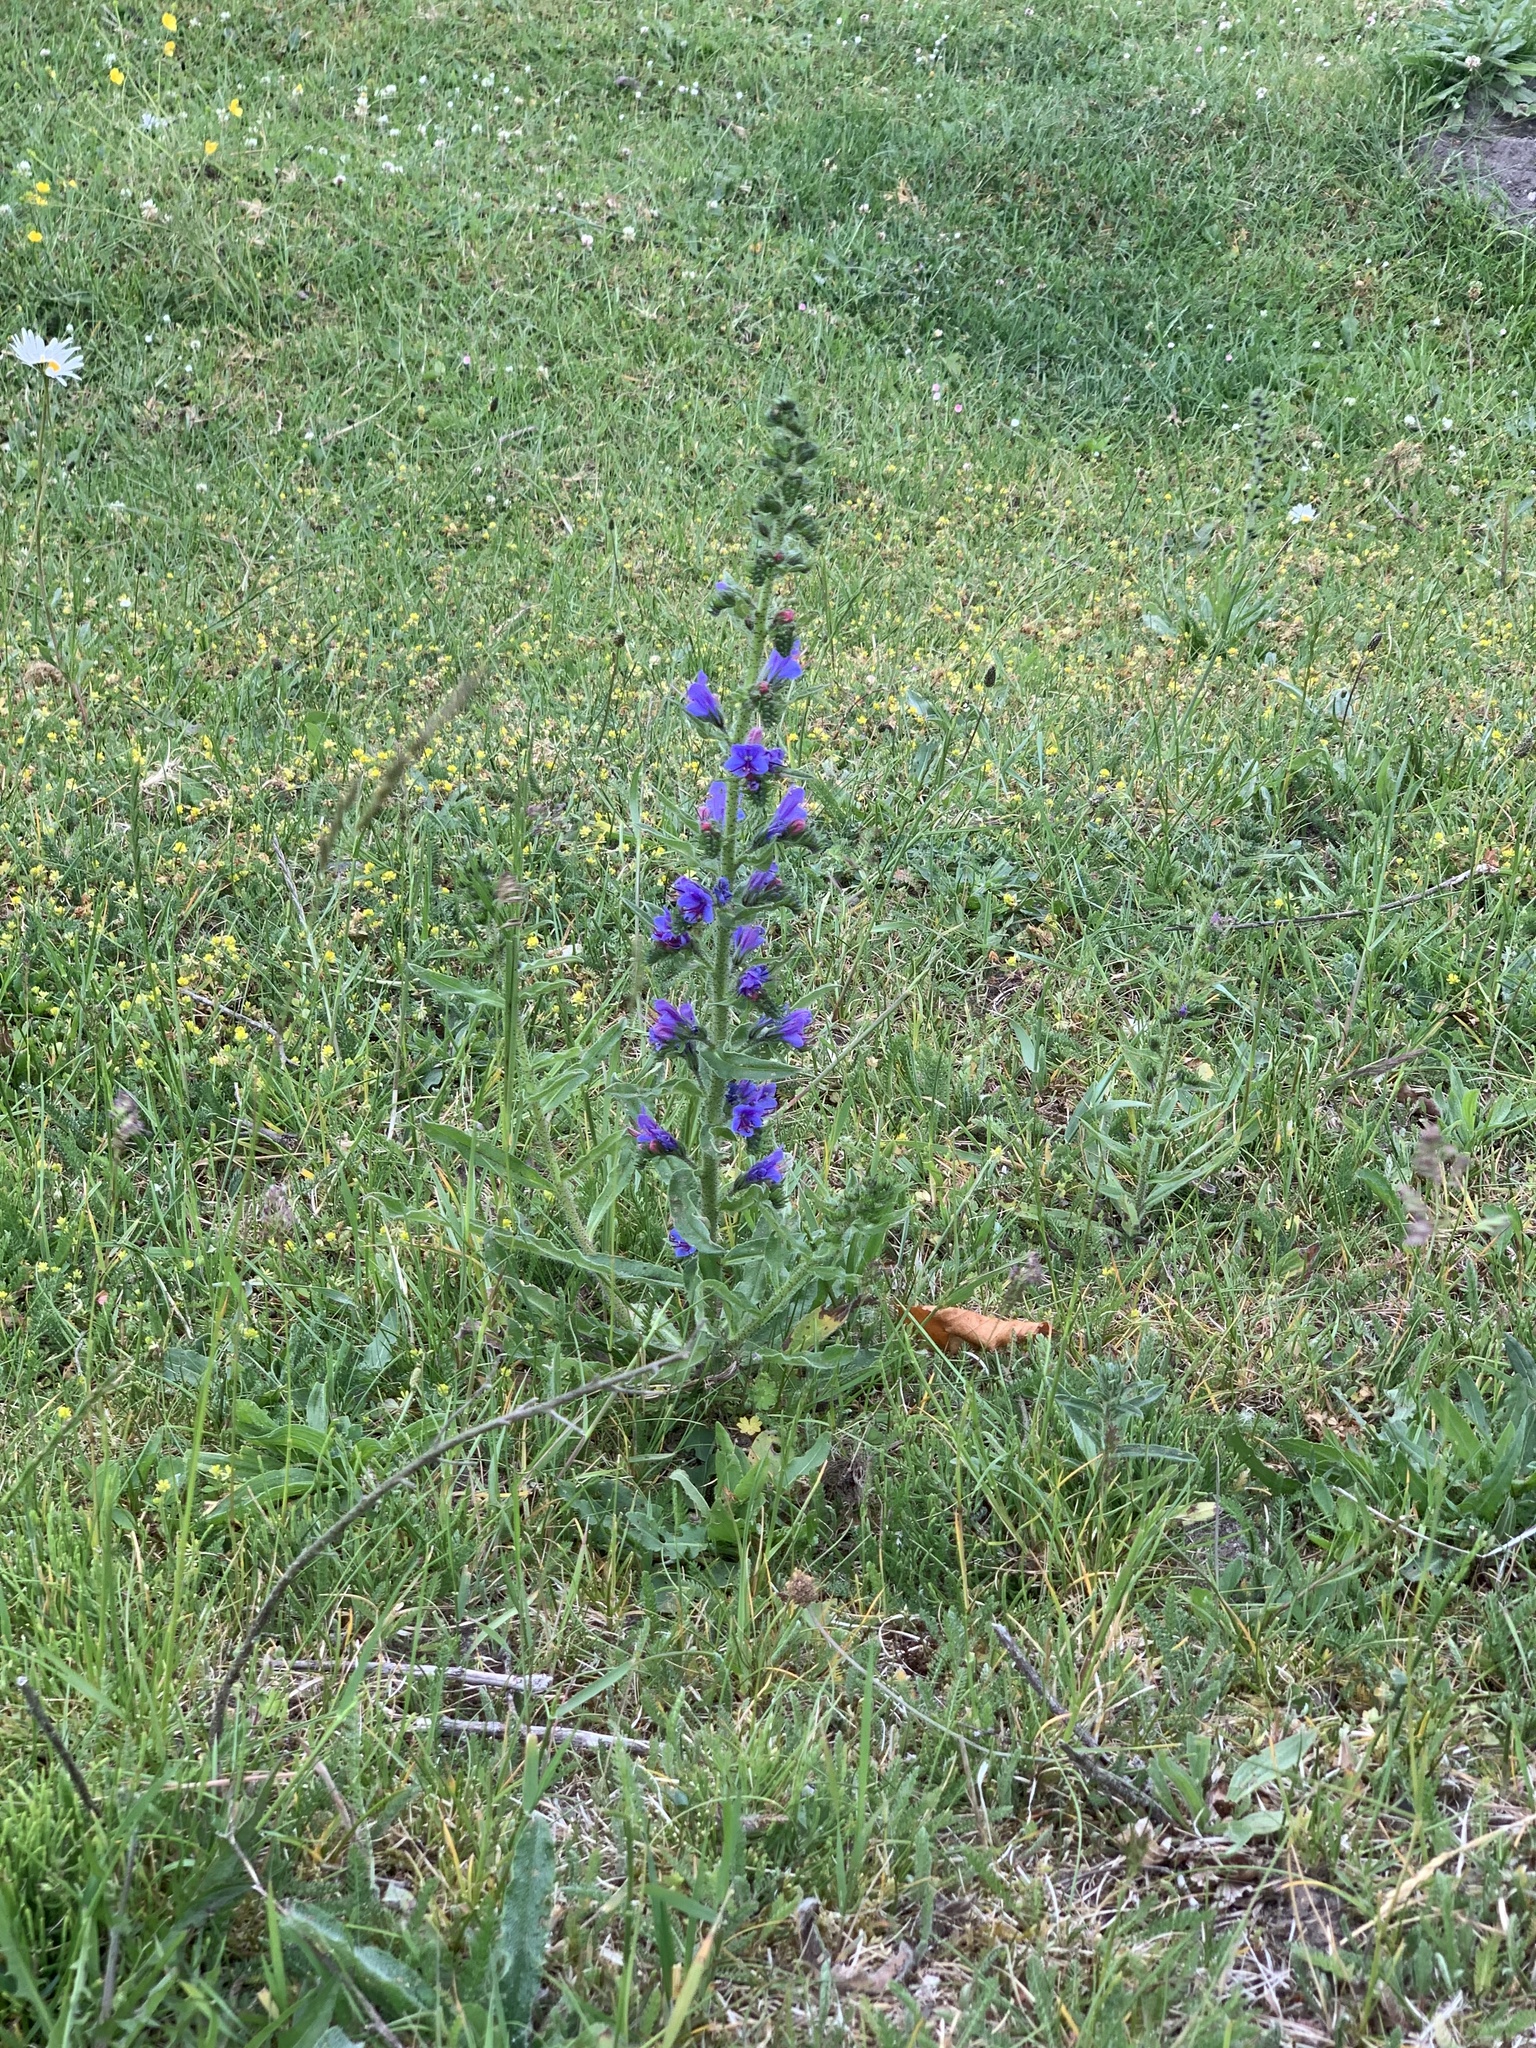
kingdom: Plantae
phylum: Tracheophyta
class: Magnoliopsida
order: Boraginales
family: Boraginaceae
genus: Echium
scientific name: Echium vulgare
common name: Common viper's bugloss
